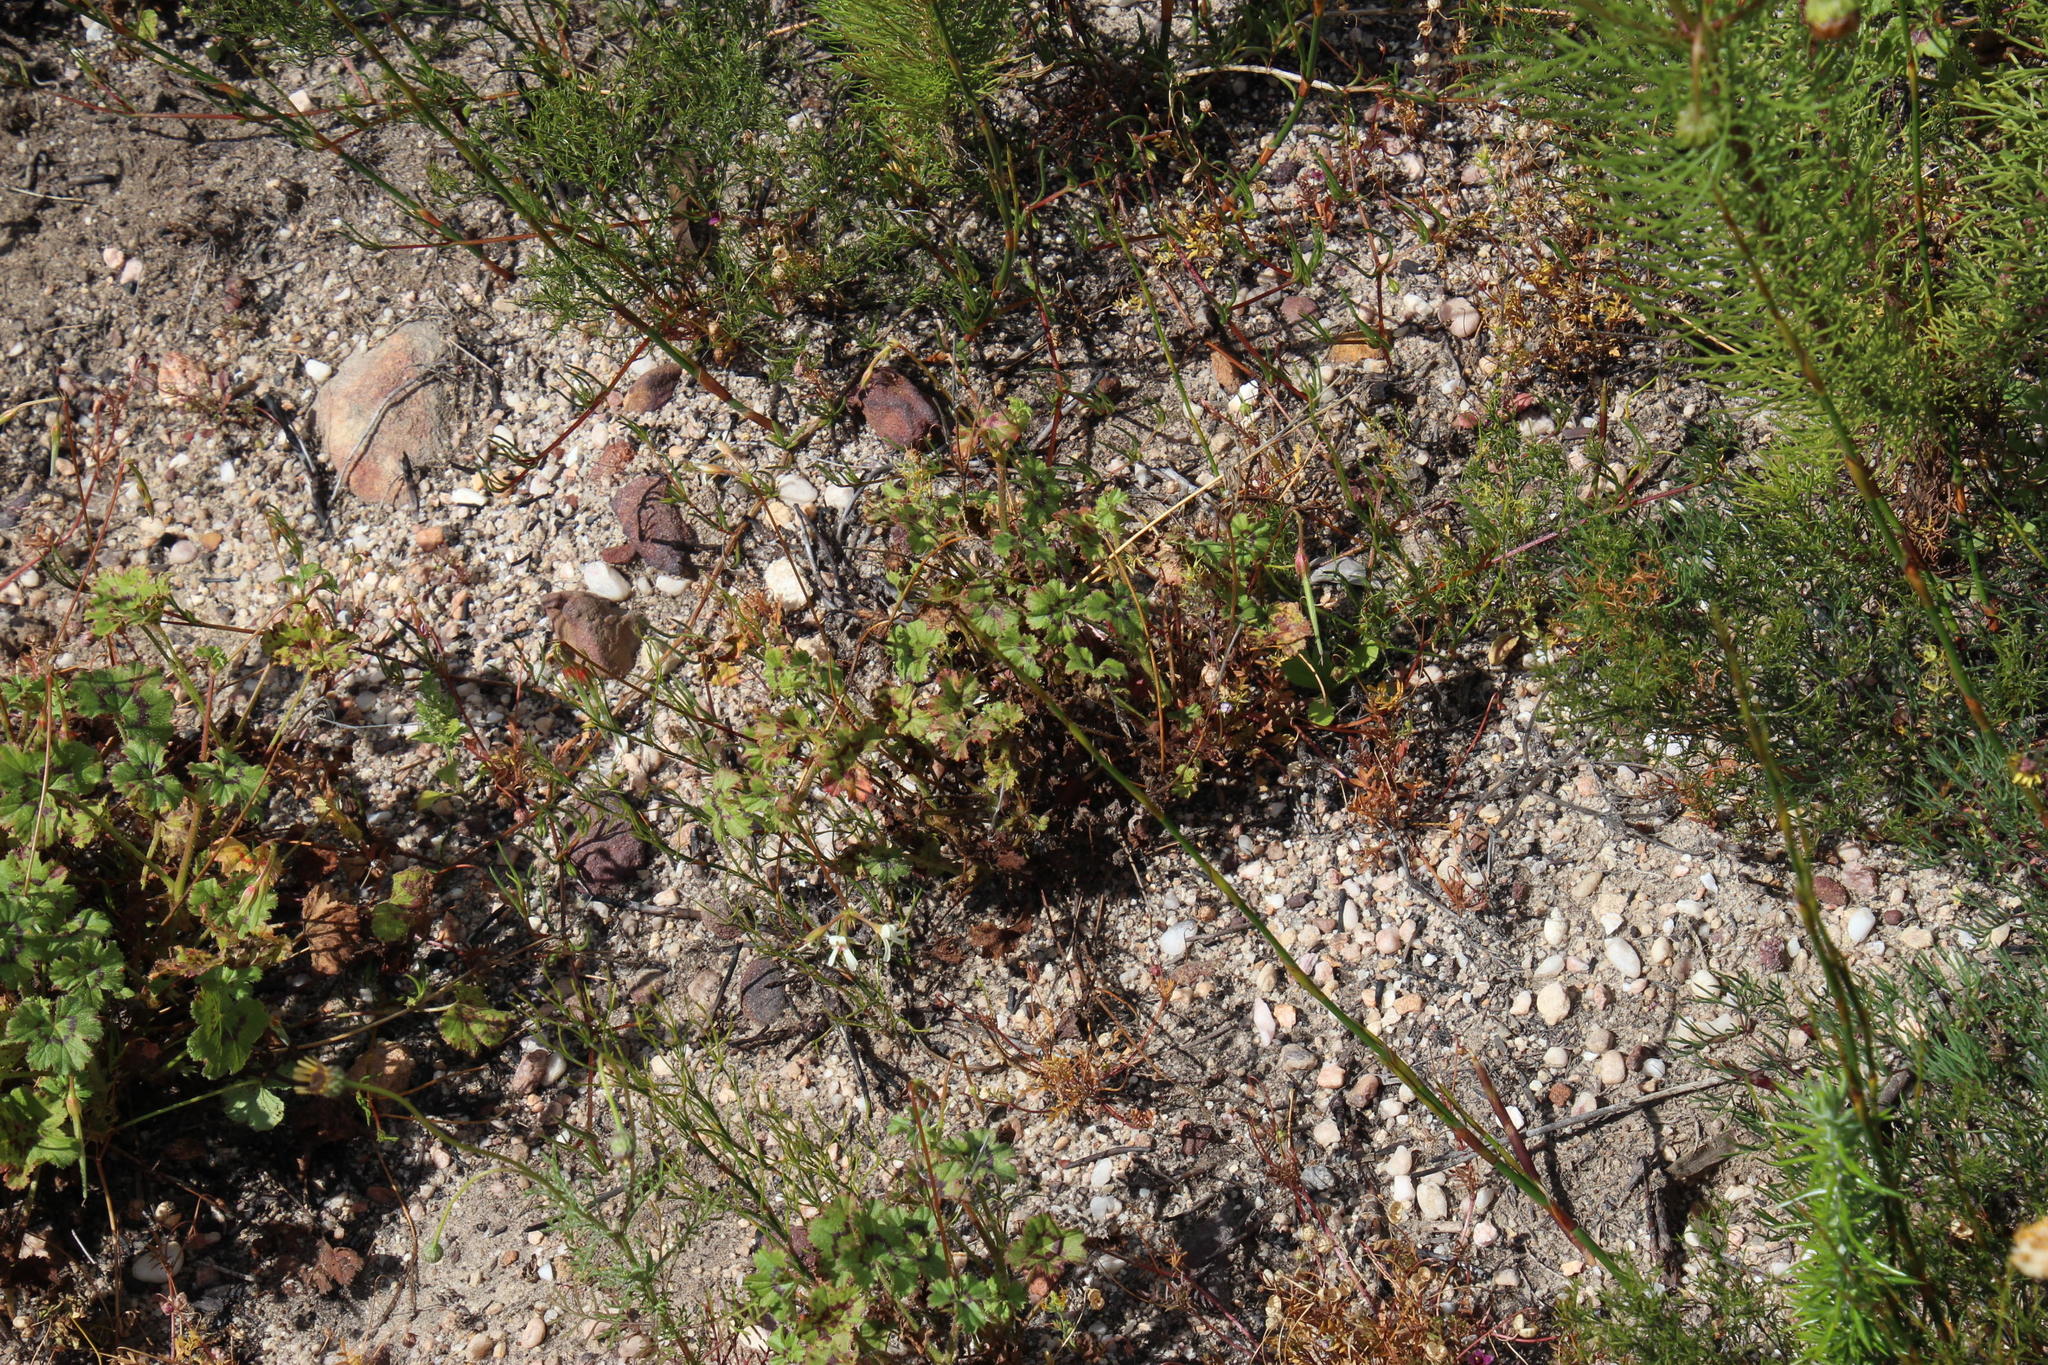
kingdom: Plantae
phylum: Tracheophyta
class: Magnoliopsida
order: Geraniales
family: Geraniaceae
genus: Pelargonium
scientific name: Pelargonium elongatum
